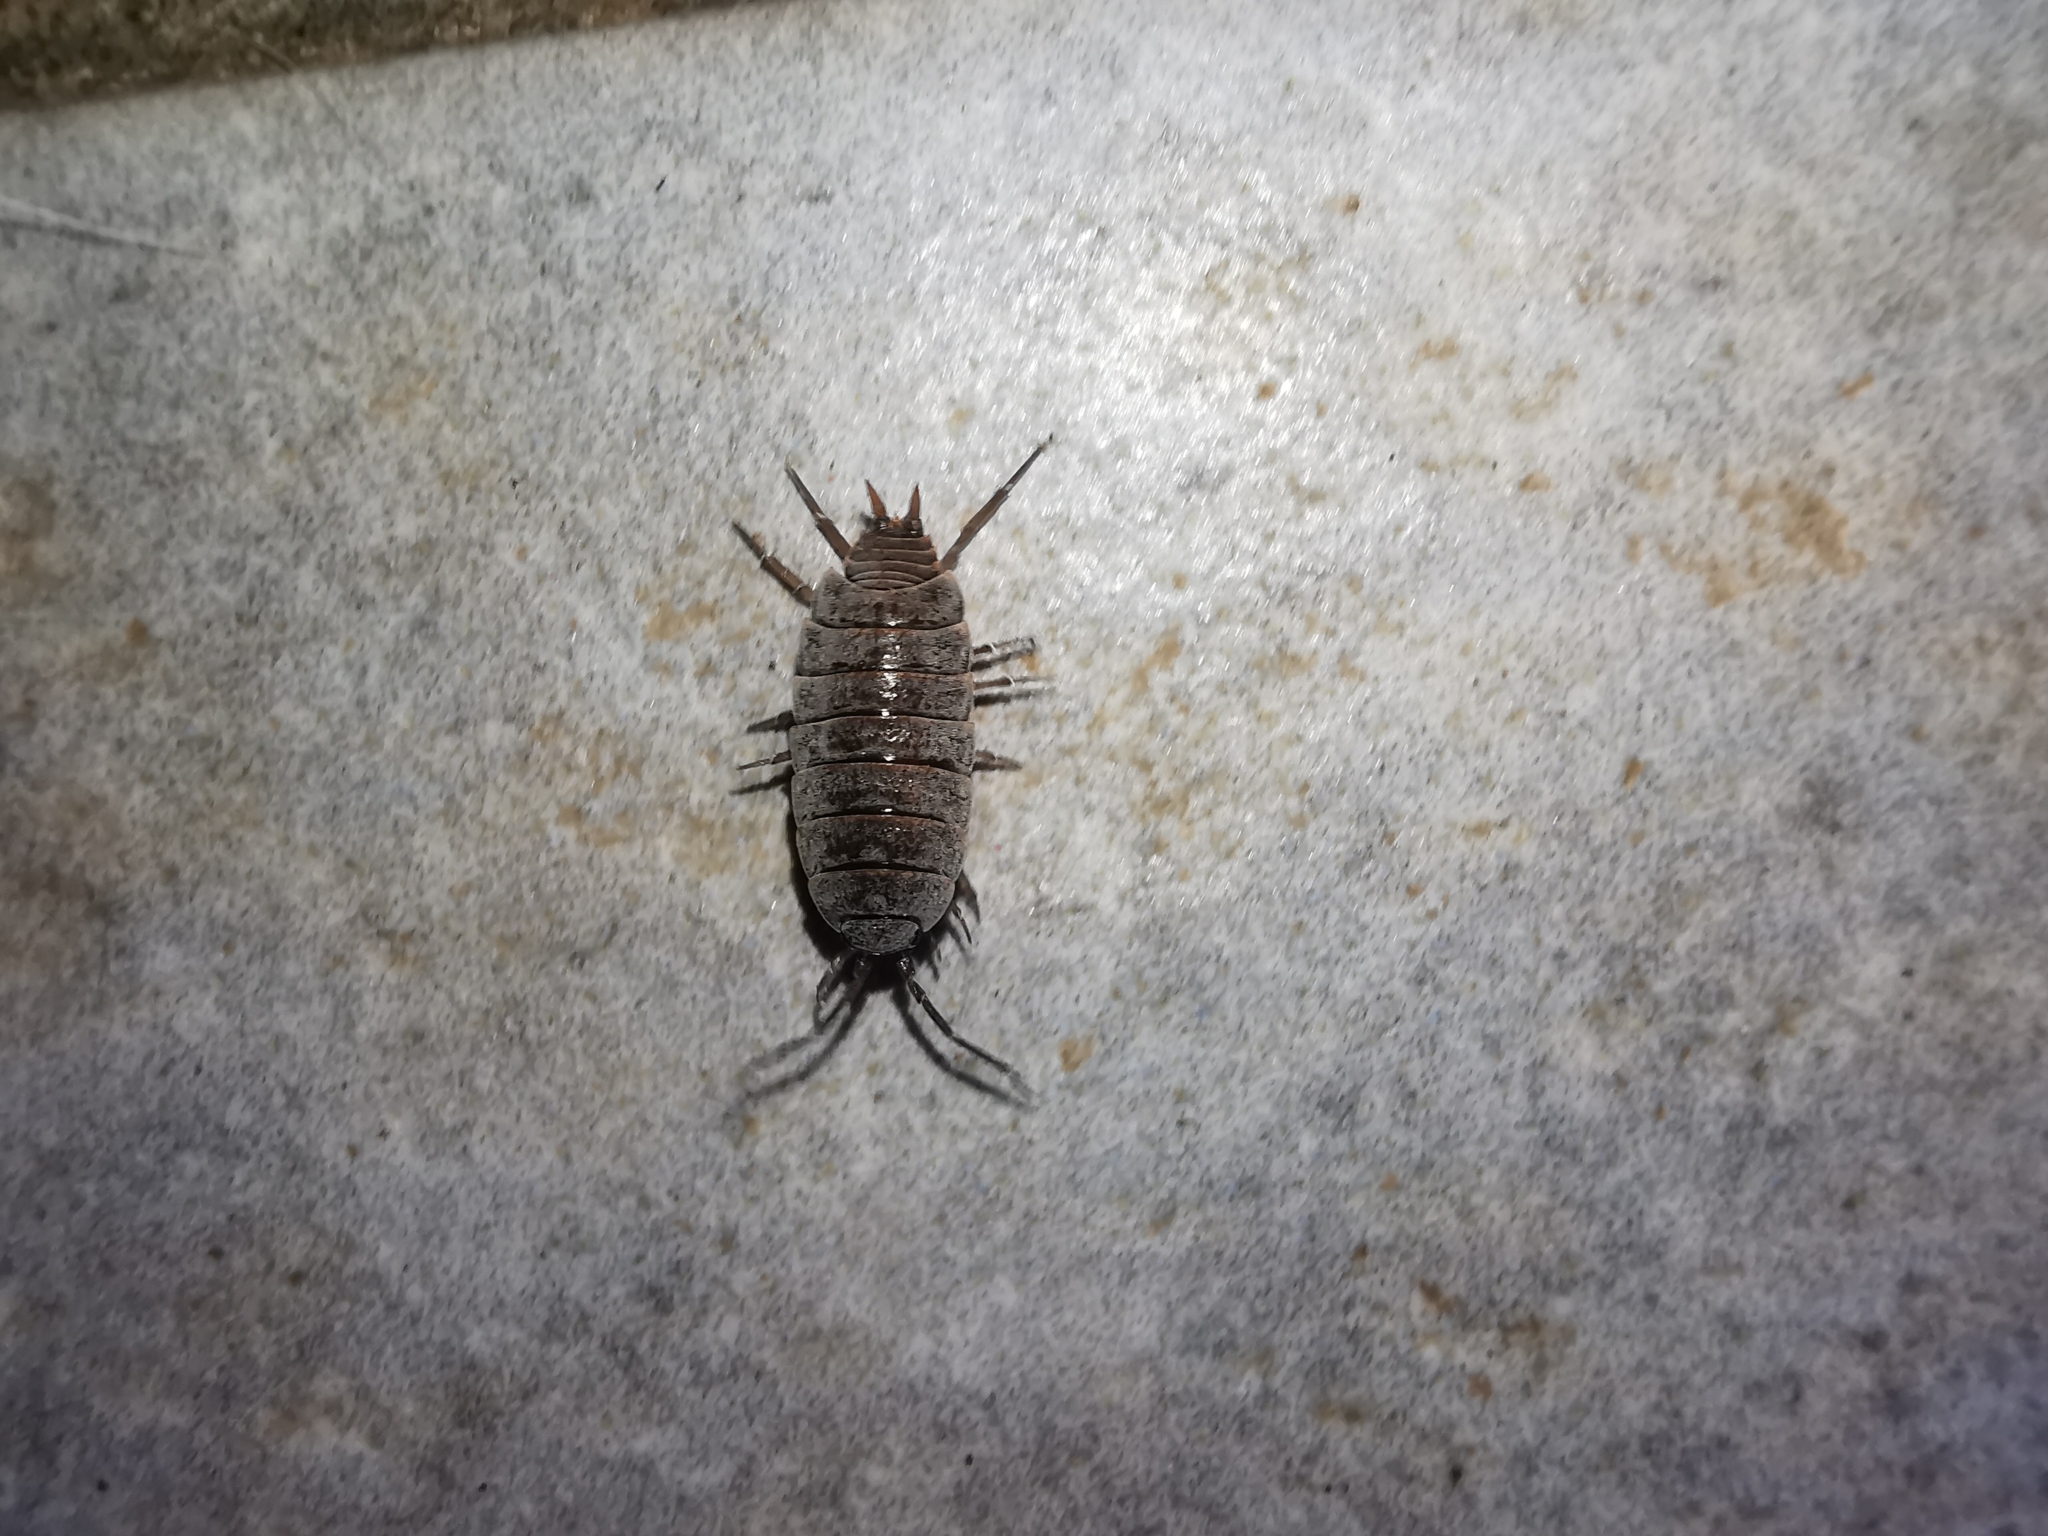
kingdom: Animalia
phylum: Arthropoda
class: Malacostraca
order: Isopoda
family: Porcellionidae
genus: Porcellionides
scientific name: Porcellionides pruinosus
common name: Plum woodlouse
